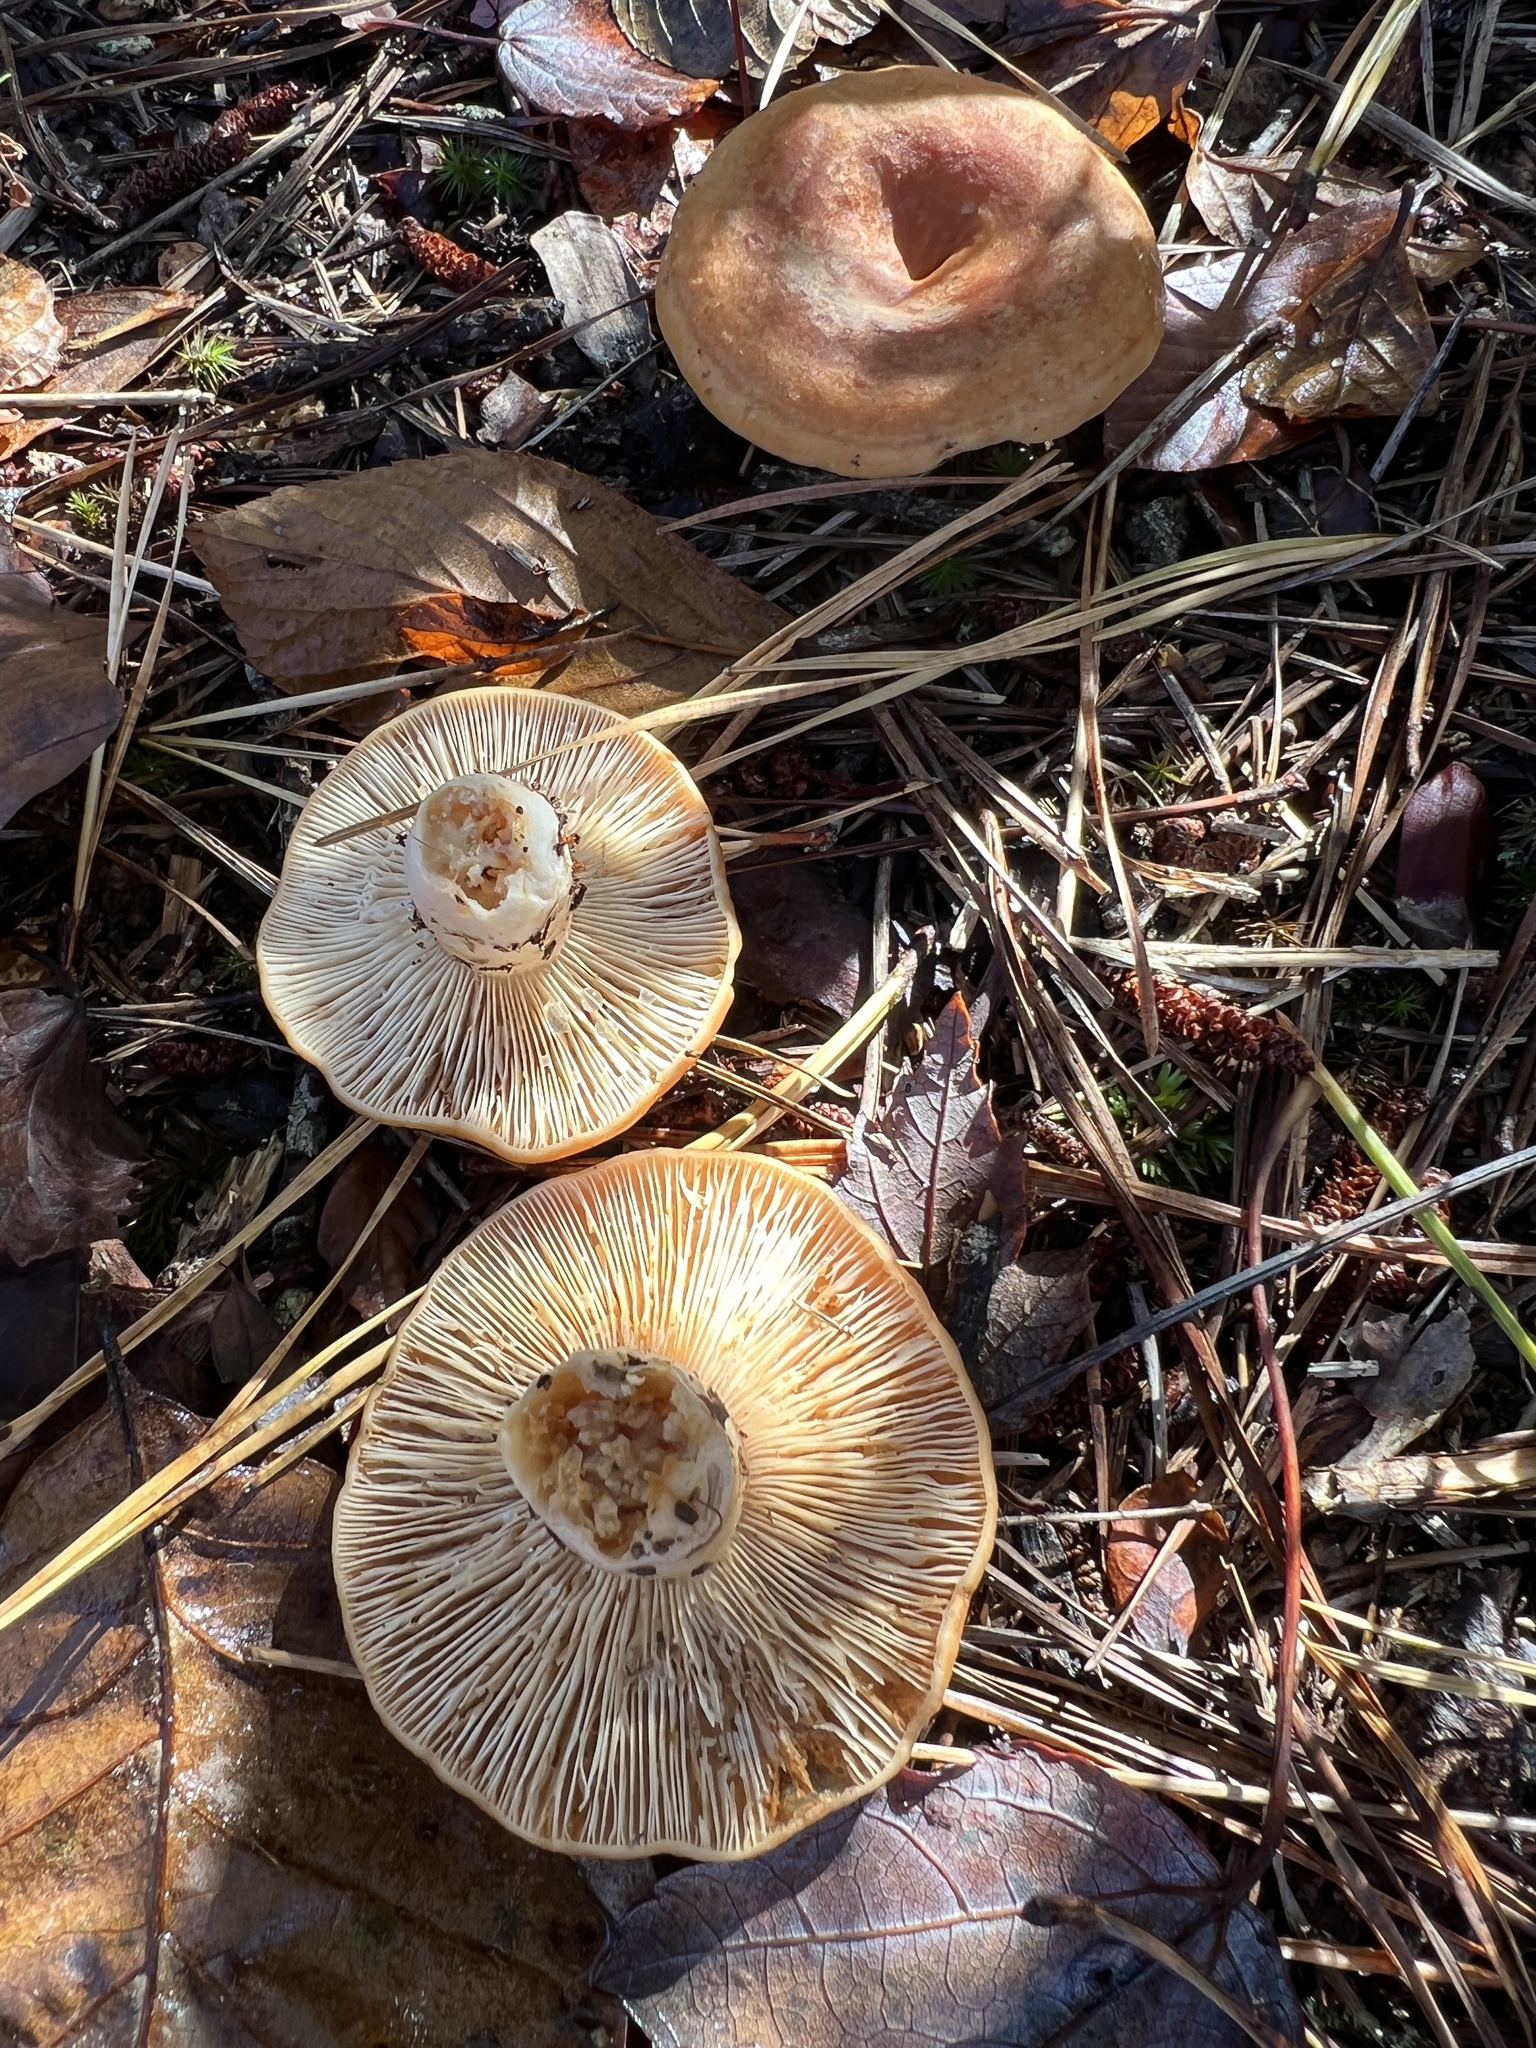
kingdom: Fungi
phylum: Basidiomycota
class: Agaricomycetes
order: Russulales
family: Russulaceae
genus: Lactarius
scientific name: Lactarius proximellus
